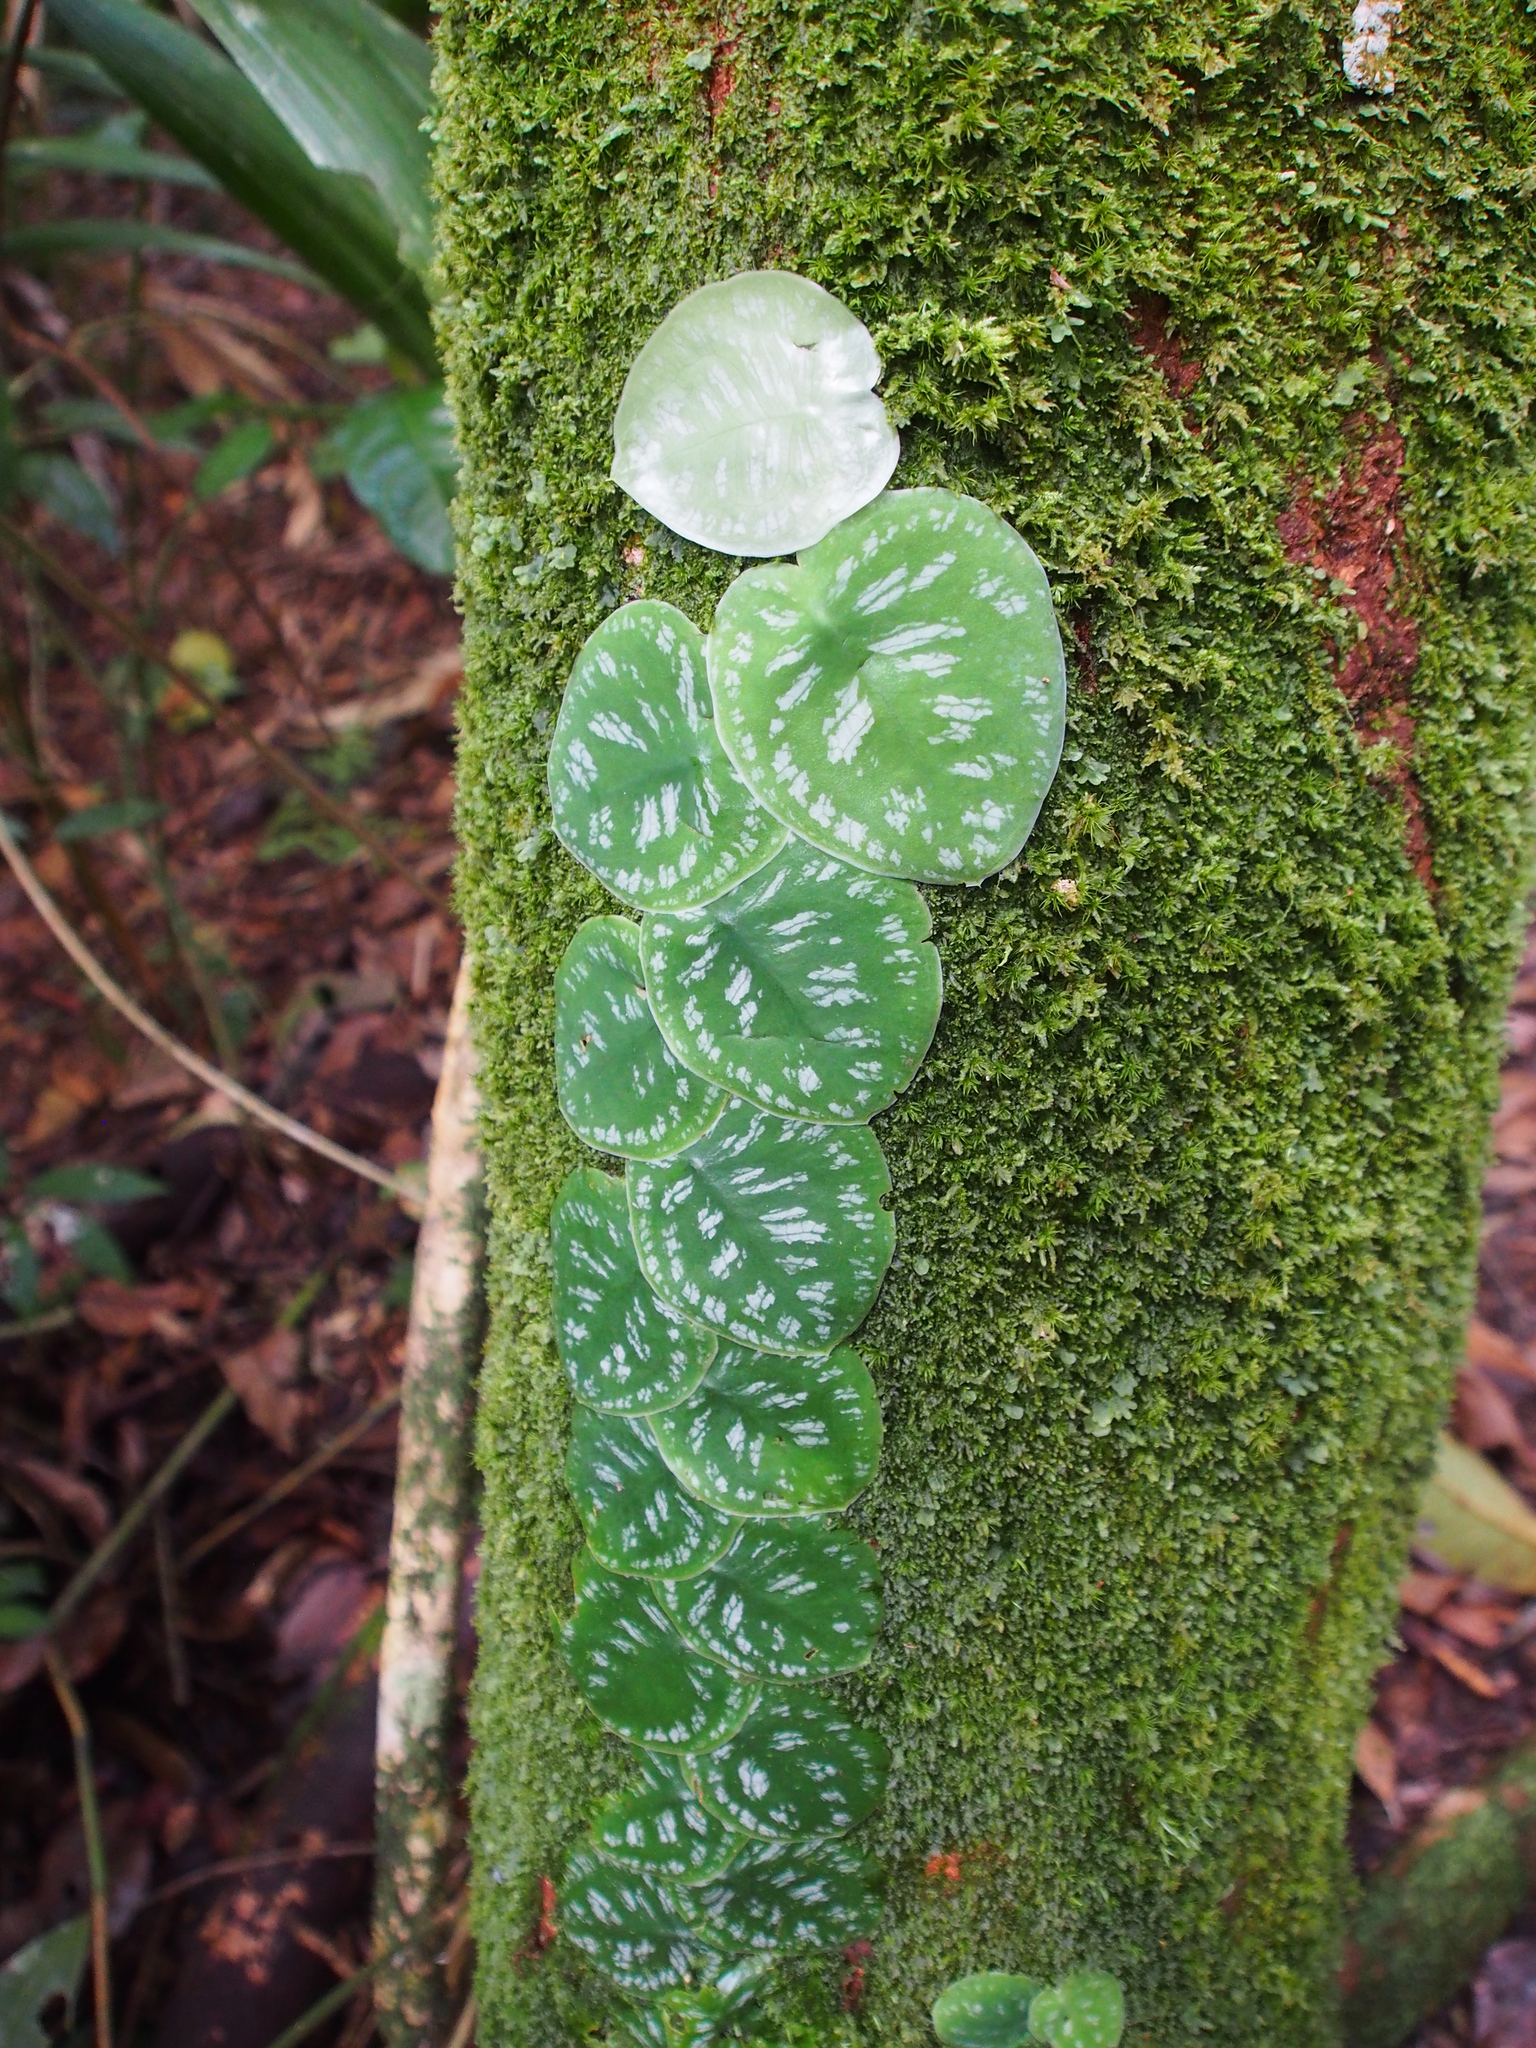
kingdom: Plantae
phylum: Tracheophyta
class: Liliopsida
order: Alismatales
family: Araceae
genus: Monstera
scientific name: Monstera tuberculata
